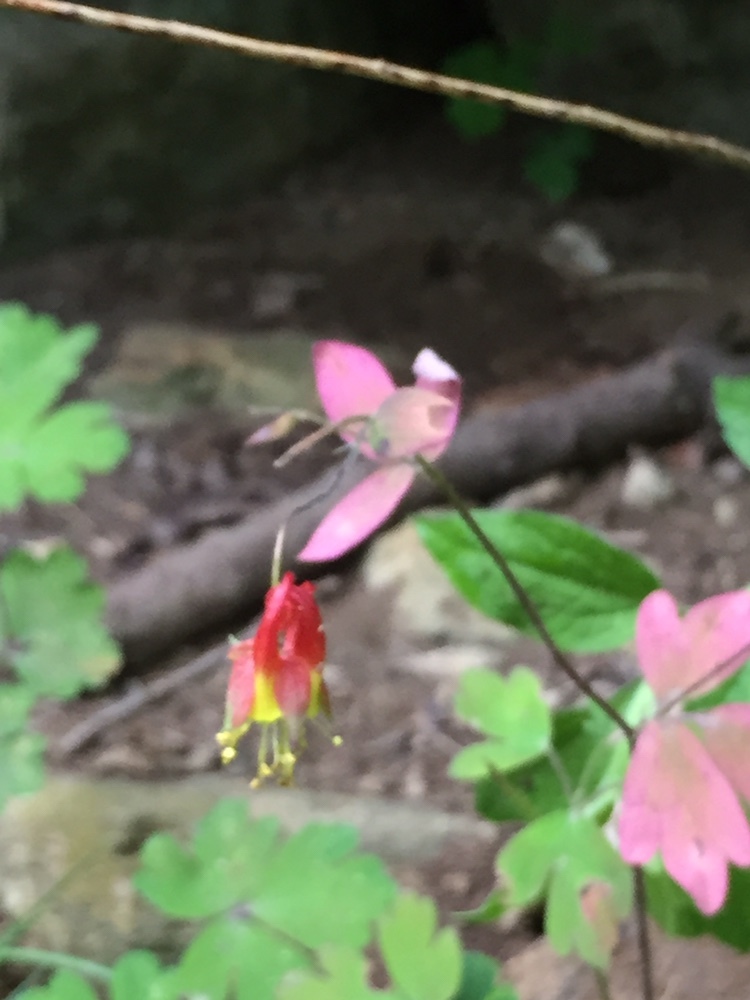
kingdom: Plantae
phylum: Tracheophyta
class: Magnoliopsida
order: Ranunculales
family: Ranunculaceae
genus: Aquilegia
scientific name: Aquilegia canadensis
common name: American columbine
